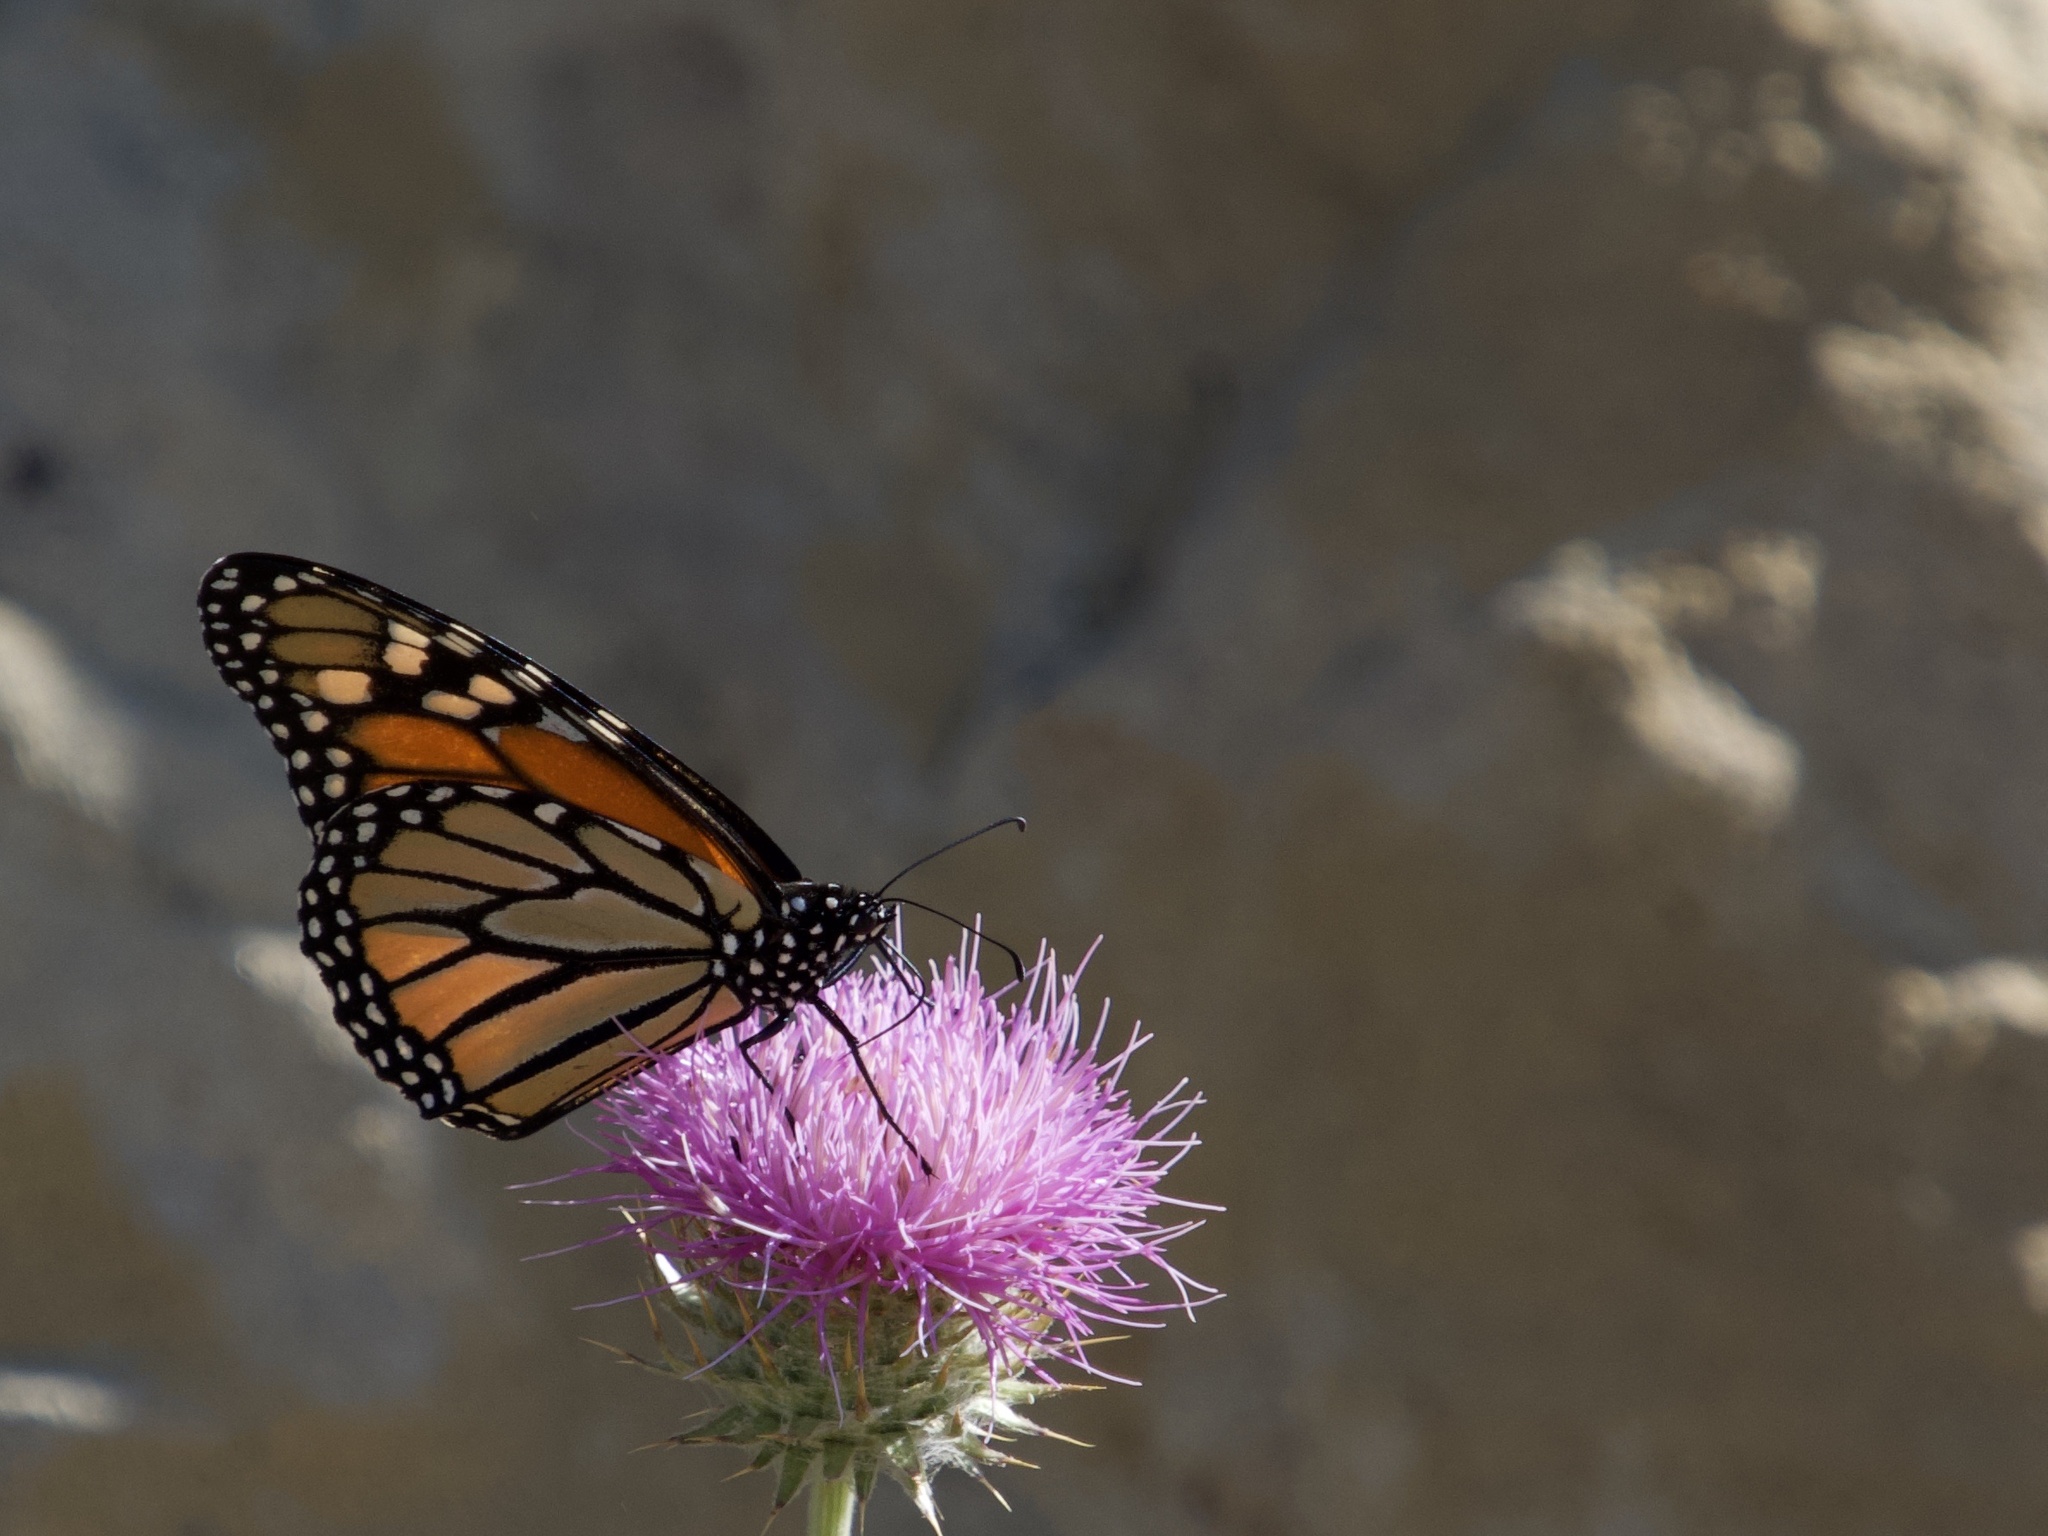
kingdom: Animalia
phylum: Arthropoda
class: Insecta
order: Lepidoptera
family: Nymphalidae
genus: Danaus
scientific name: Danaus plexippus
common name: Monarch
